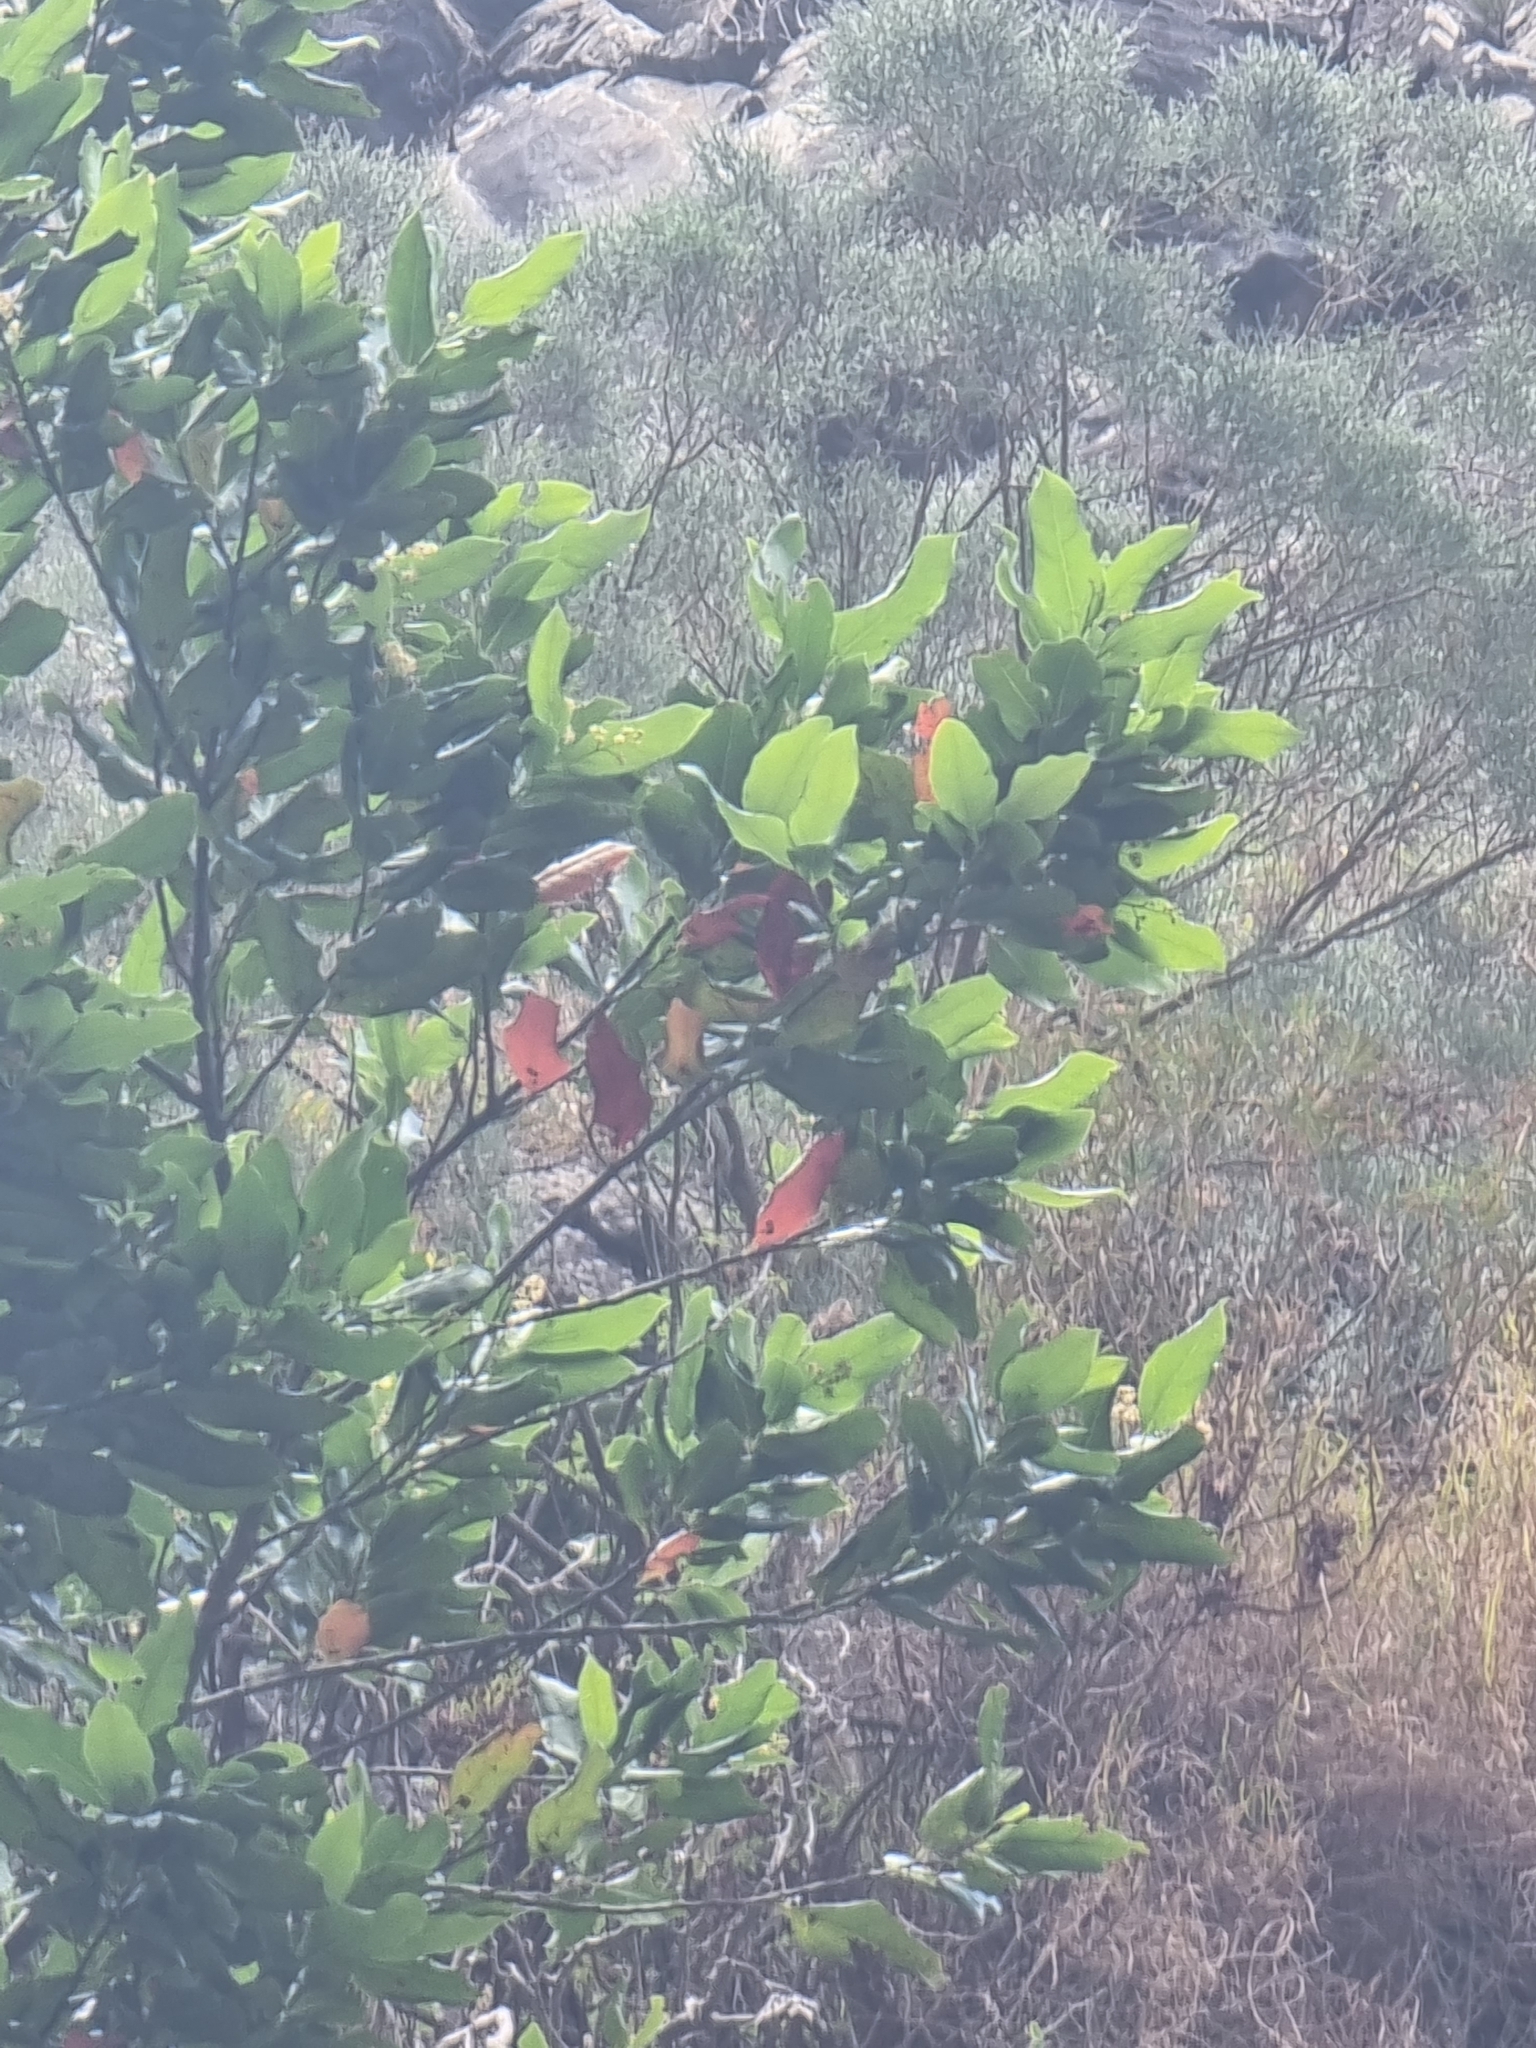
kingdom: Plantae
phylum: Tracheophyta
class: Magnoliopsida
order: Laurales
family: Lauraceae
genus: Mespilodaphne
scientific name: Mespilodaphne foetens
